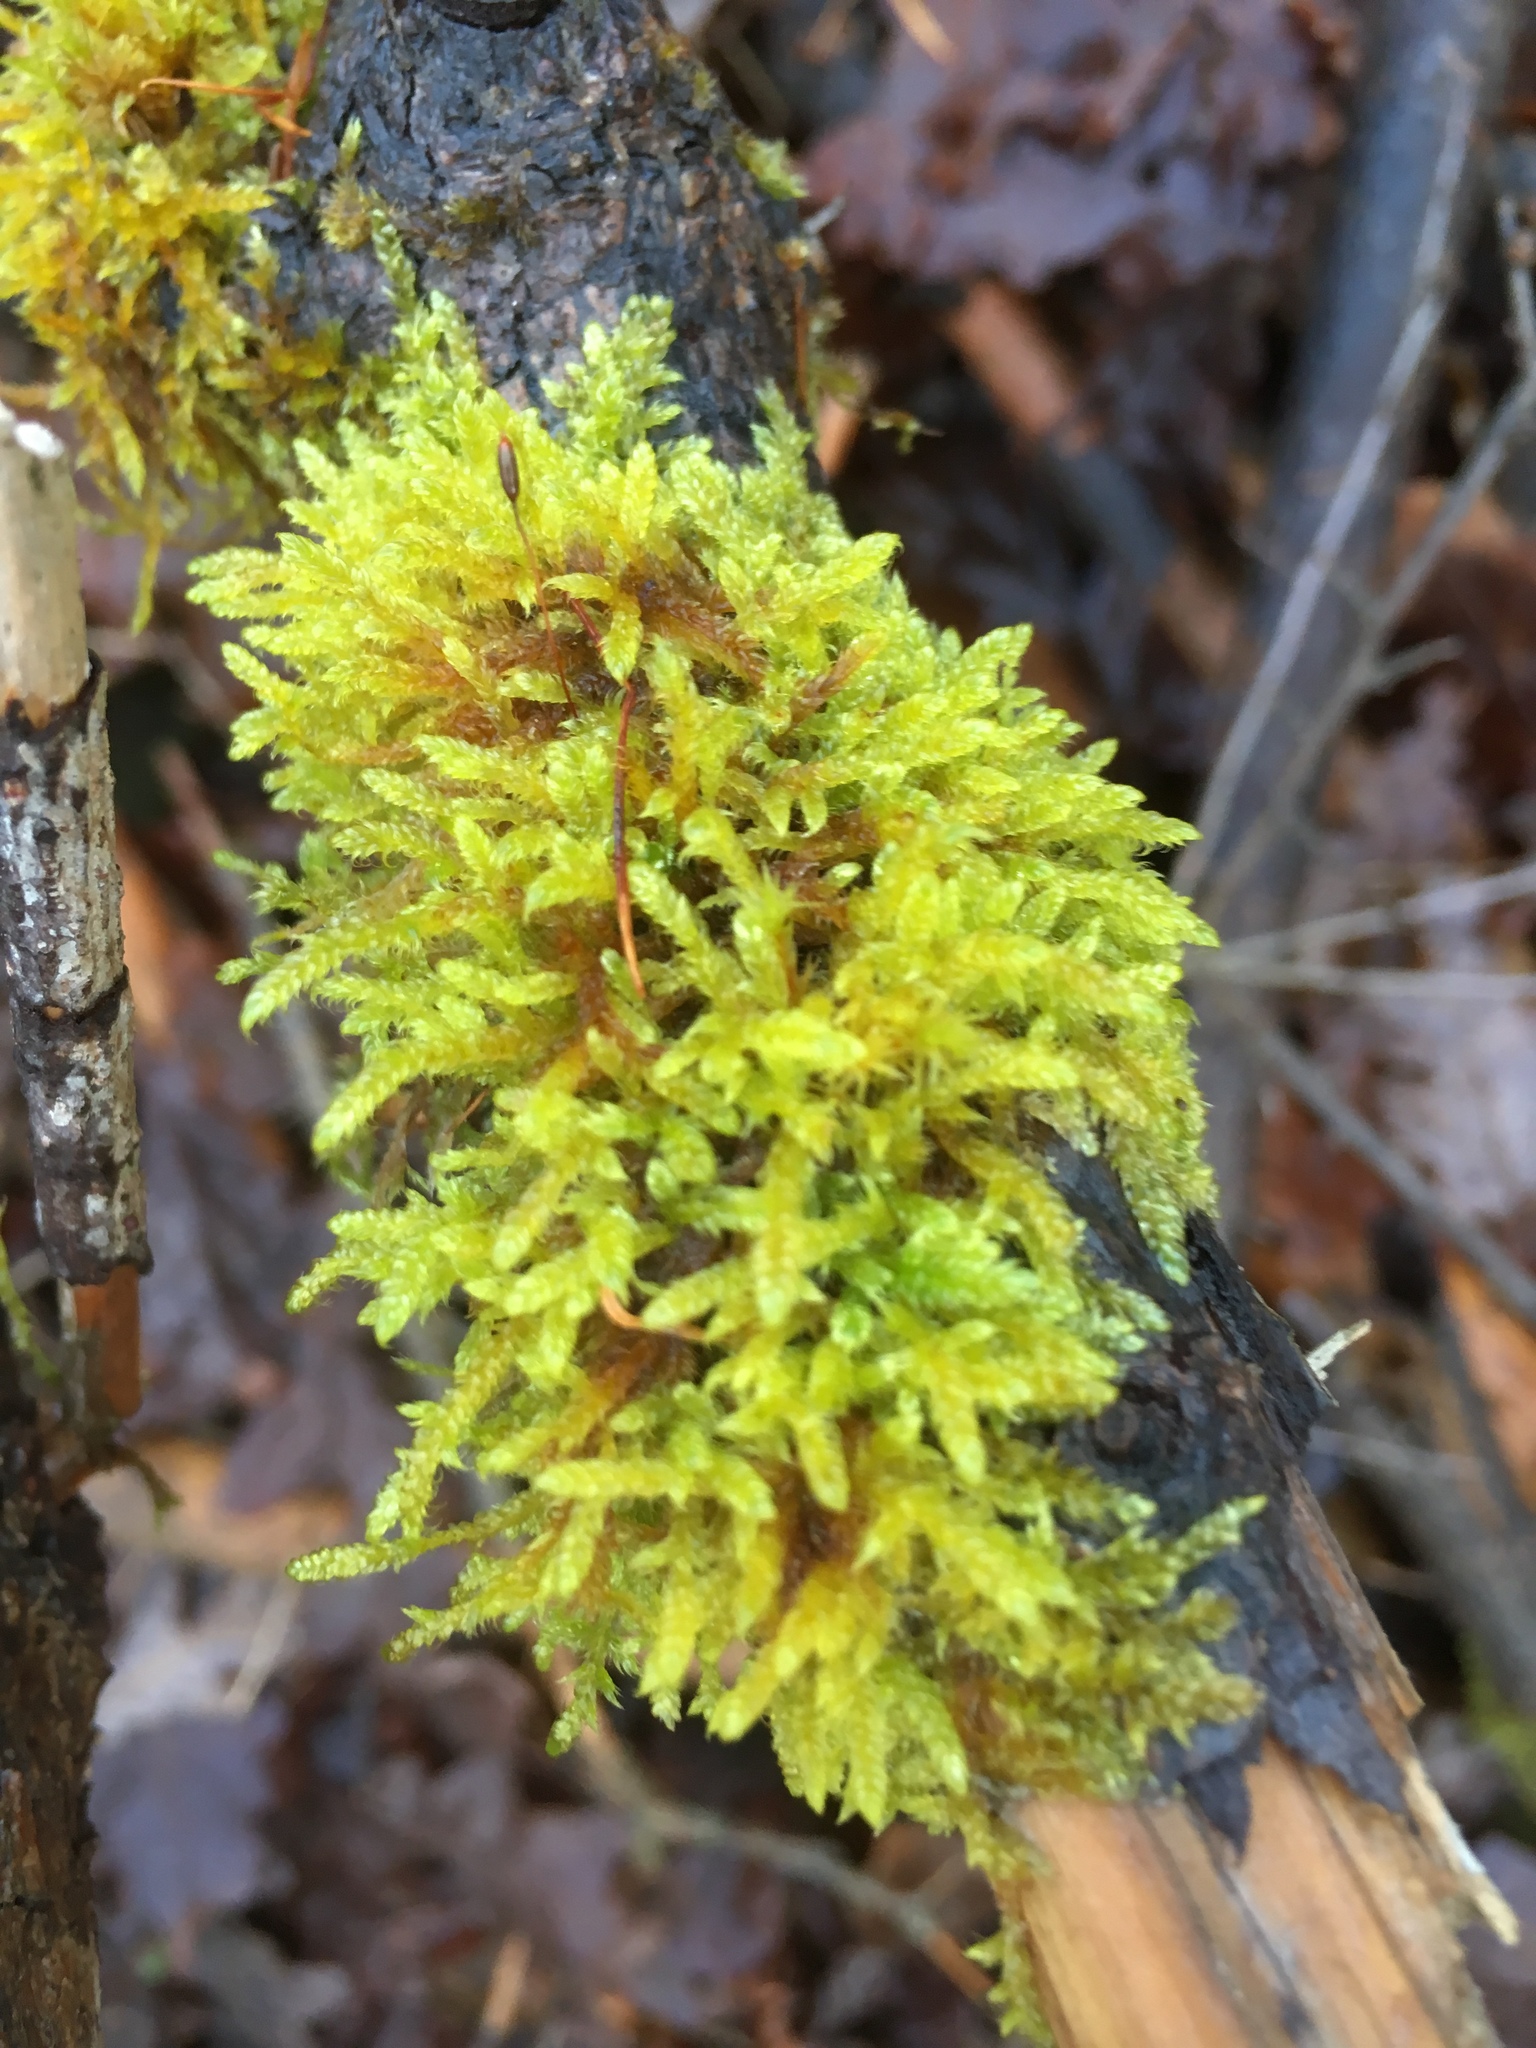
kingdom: Plantae
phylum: Bryophyta
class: Bryopsida
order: Hypnales
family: Hypnaceae
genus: Hypnum
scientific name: Hypnum cupressiforme
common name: Cypress-leaved plait-moss
